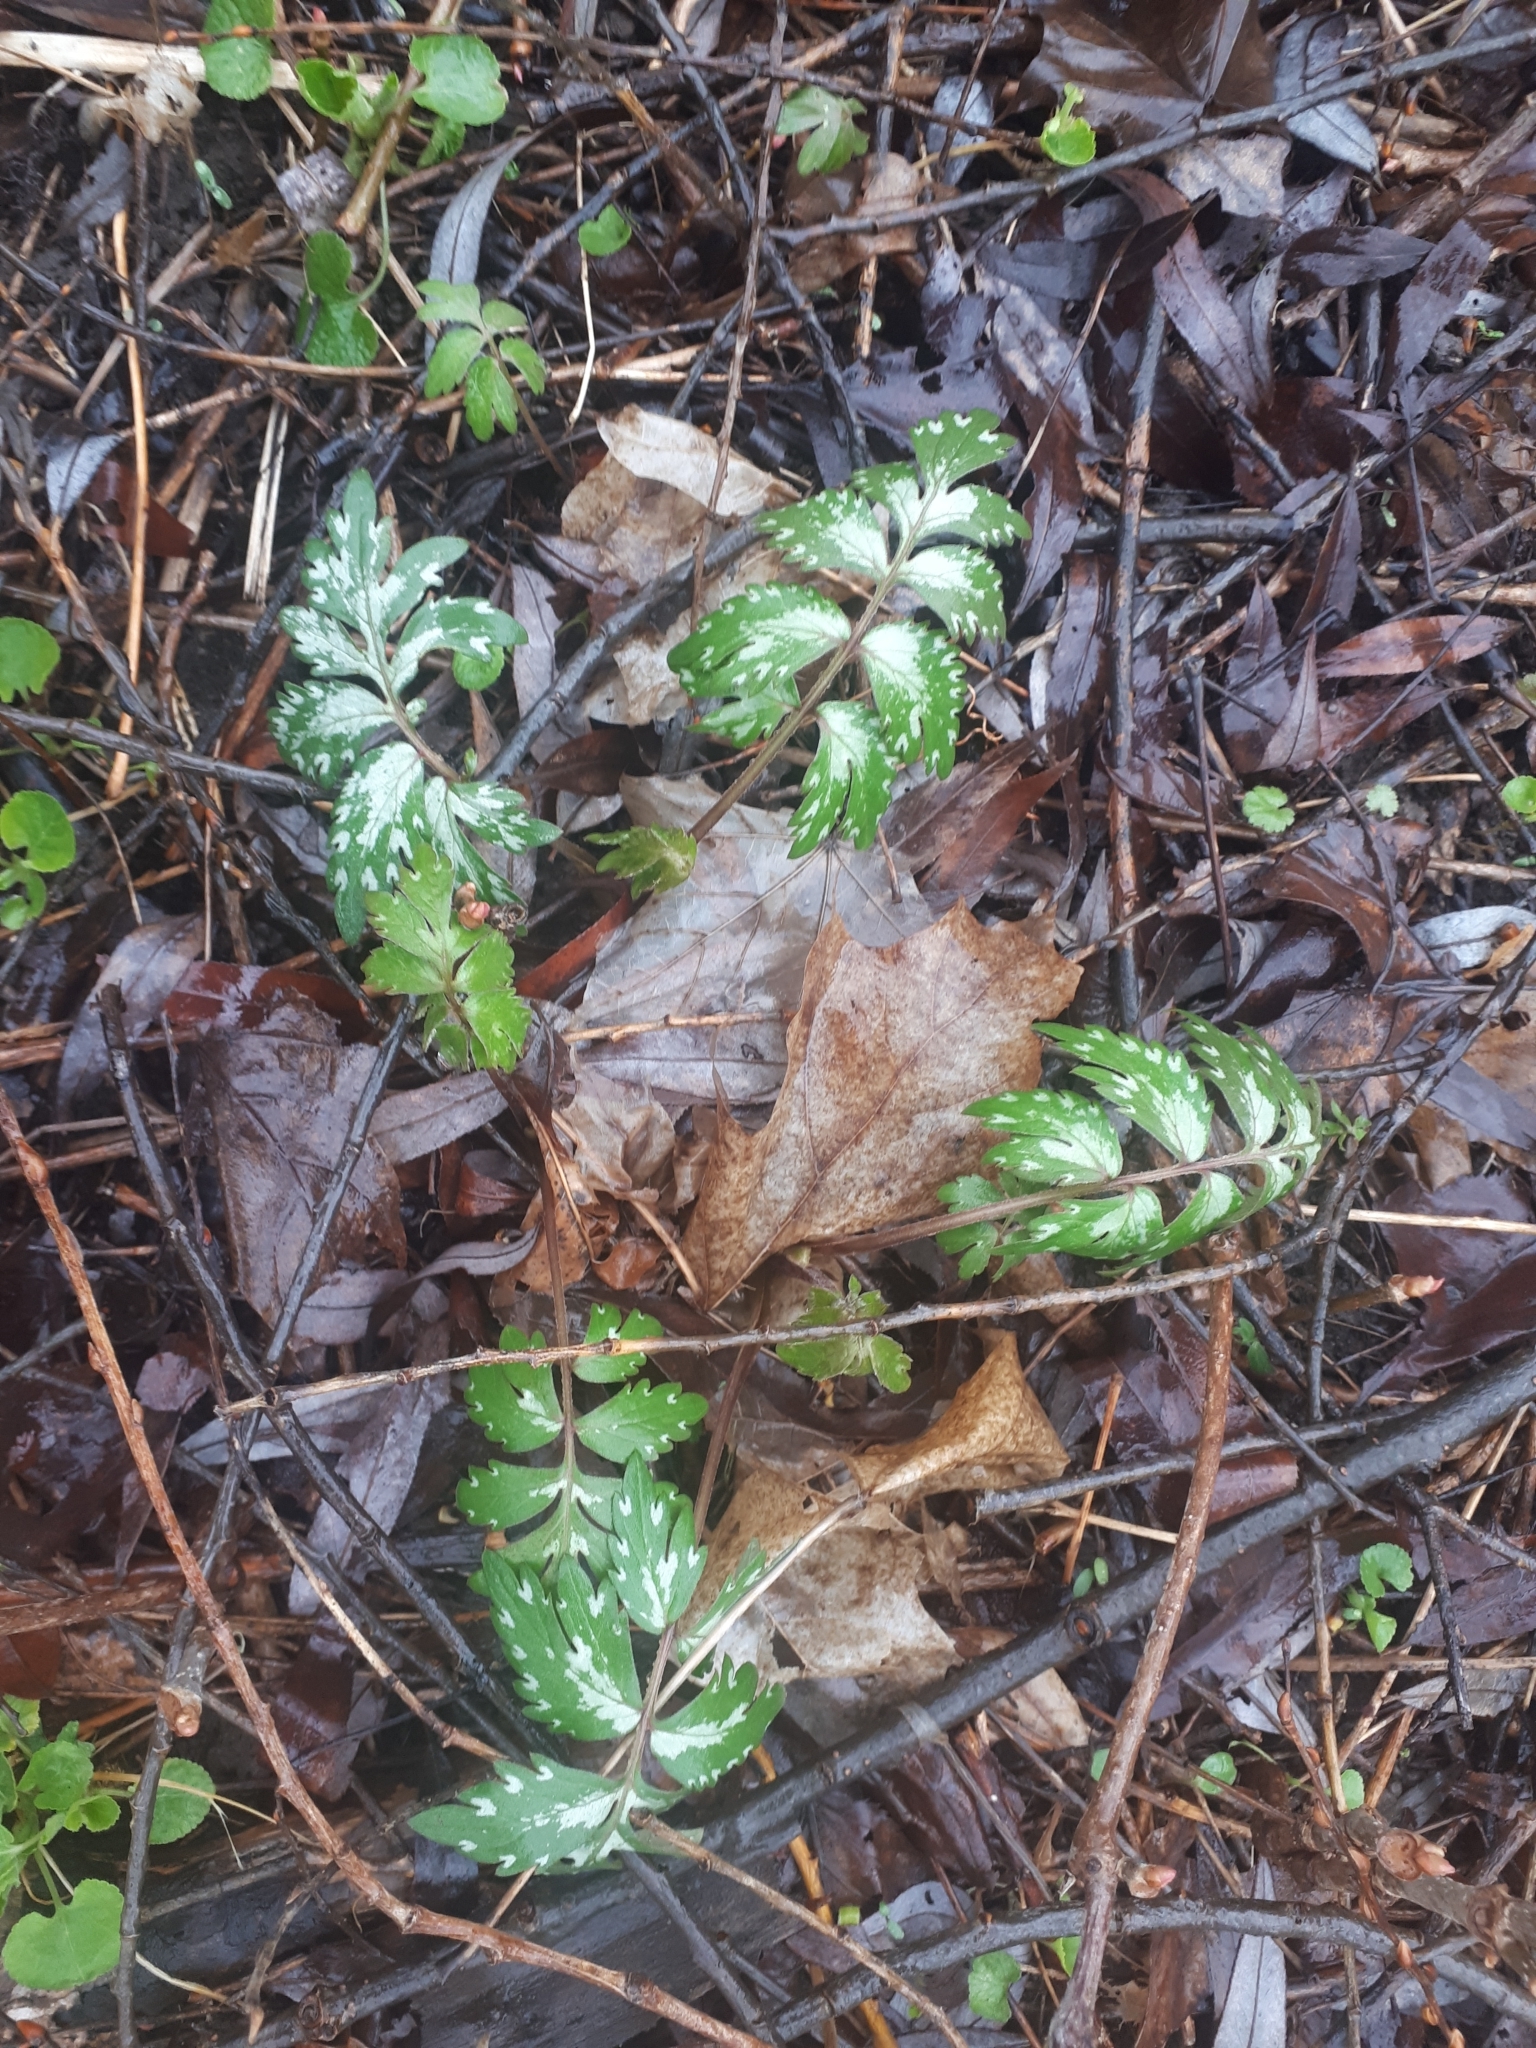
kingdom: Plantae
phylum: Tracheophyta
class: Magnoliopsida
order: Boraginales
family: Hydrophyllaceae
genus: Hydrophyllum
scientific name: Hydrophyllum virginianum
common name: Virginia waterleaf
